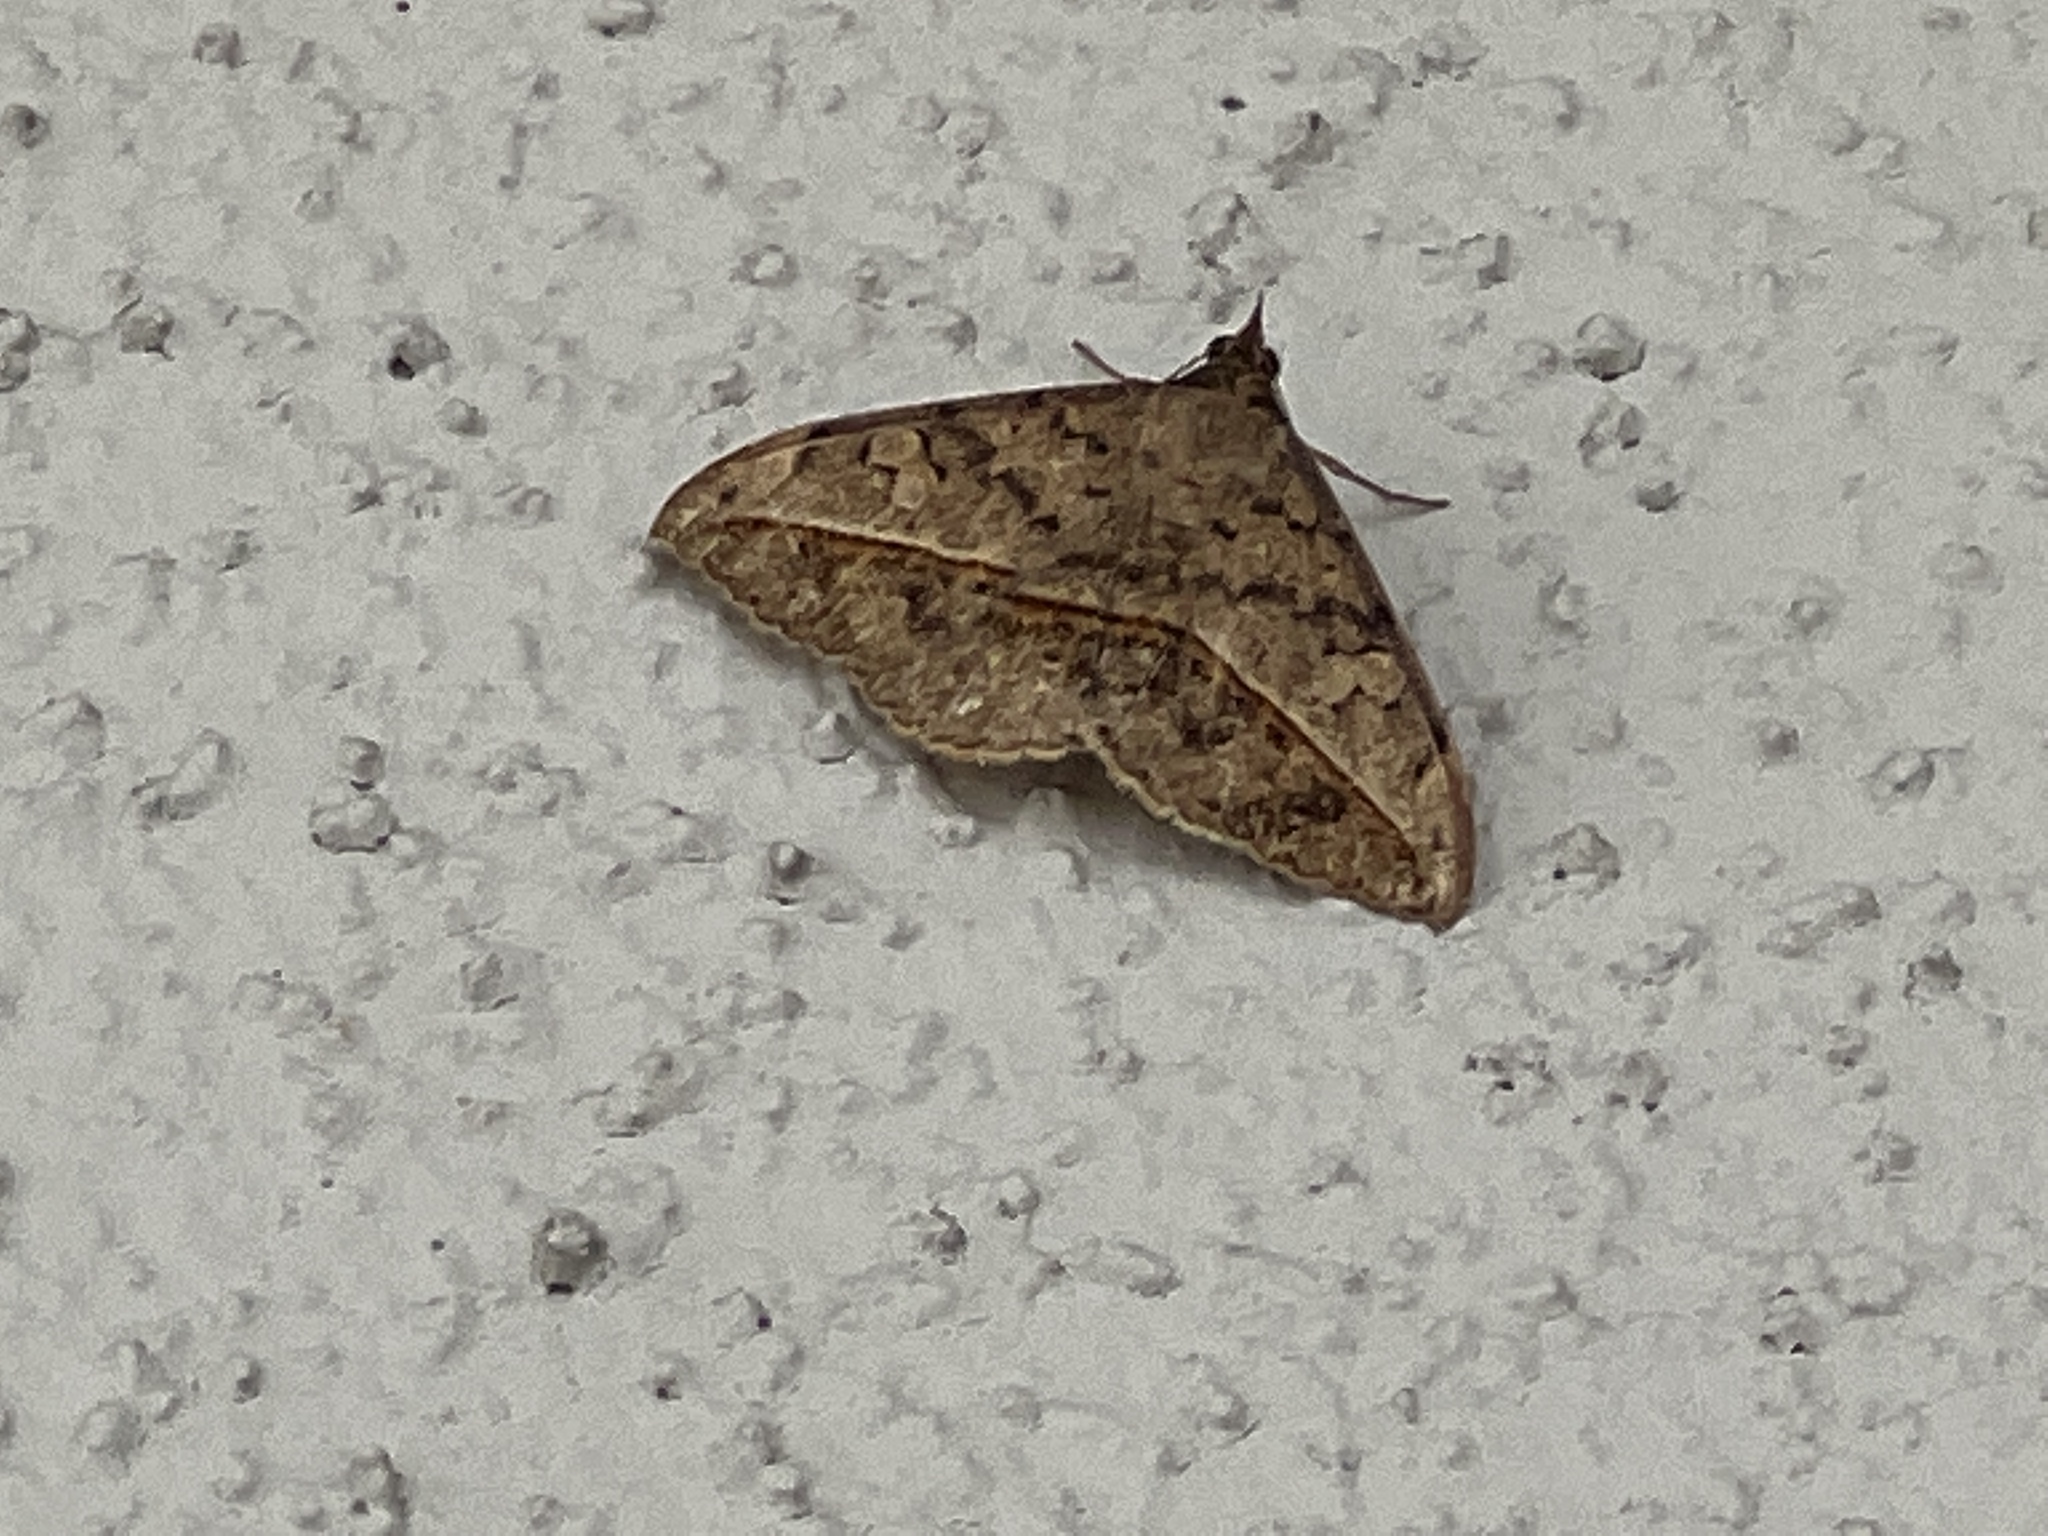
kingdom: Animalia
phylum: Arthropoda
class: Insecta
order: Lepidoptera
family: Erebidae
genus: Anticarsia
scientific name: Anticarsia gemmatalis
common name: Cutworm moth
